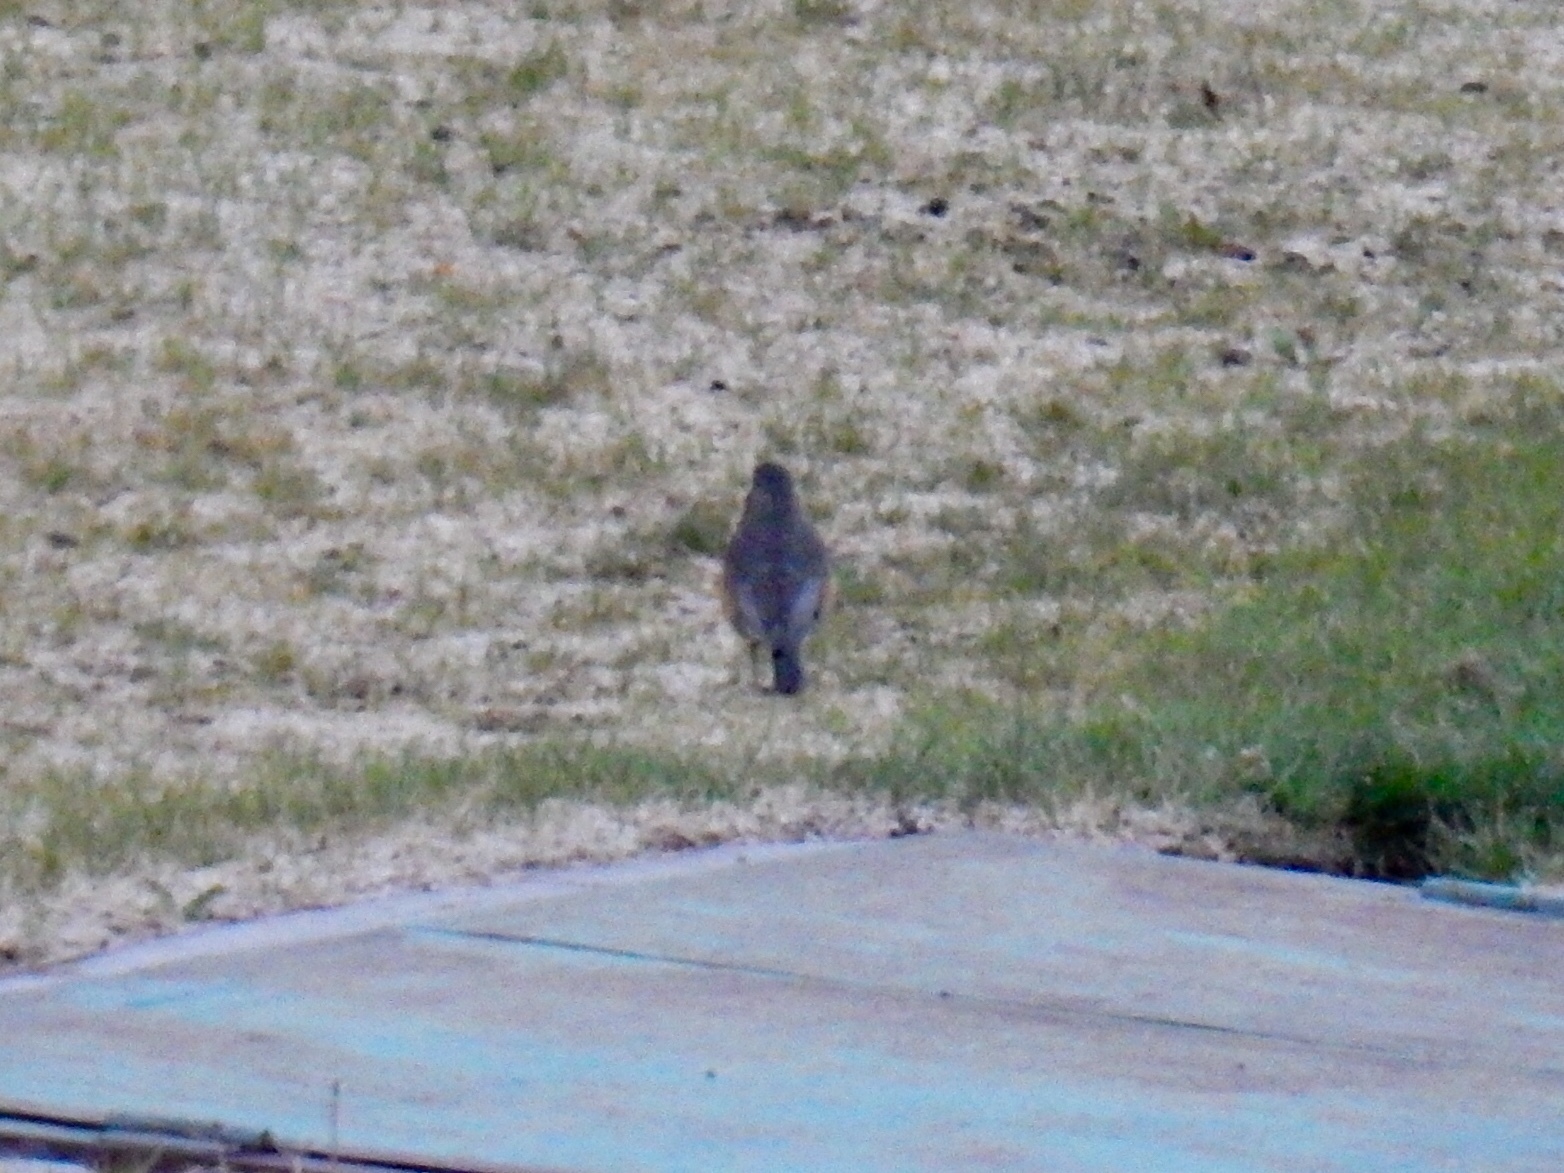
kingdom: Animalia
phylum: Chordata
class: Aves
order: Passeriformes
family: Turdidae
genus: Turdus
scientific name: Turdus migratorius
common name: American robin
